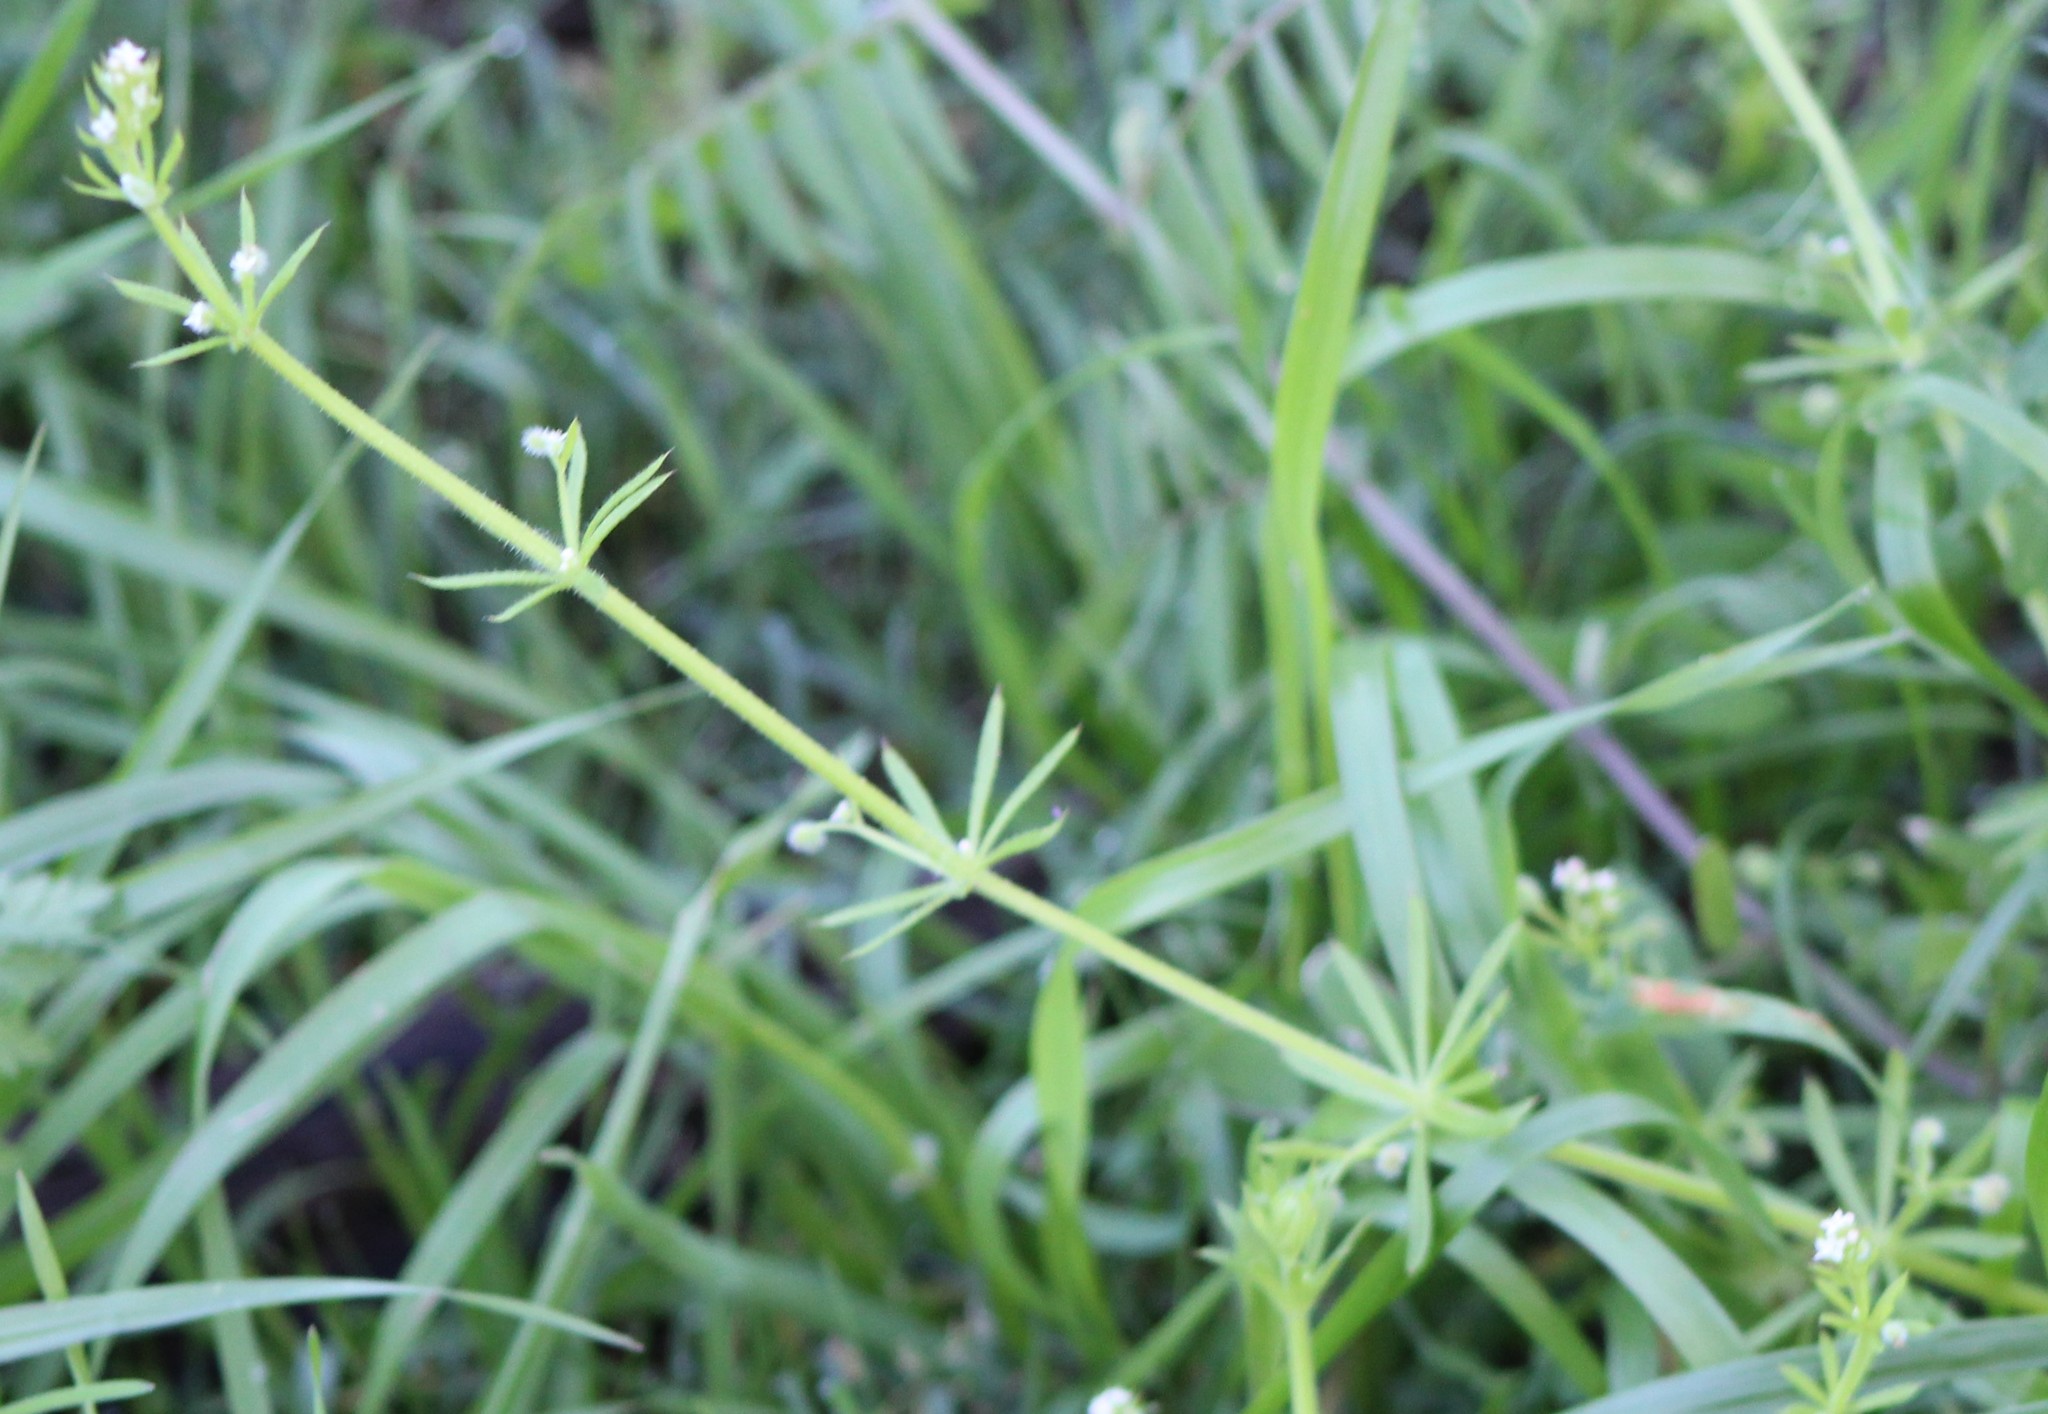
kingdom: Plantae
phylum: Tracheophyta
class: Magnoliopsida
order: Gentianales
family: Rubiaceae
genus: Galium
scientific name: Galium aparine
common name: Cleavers
